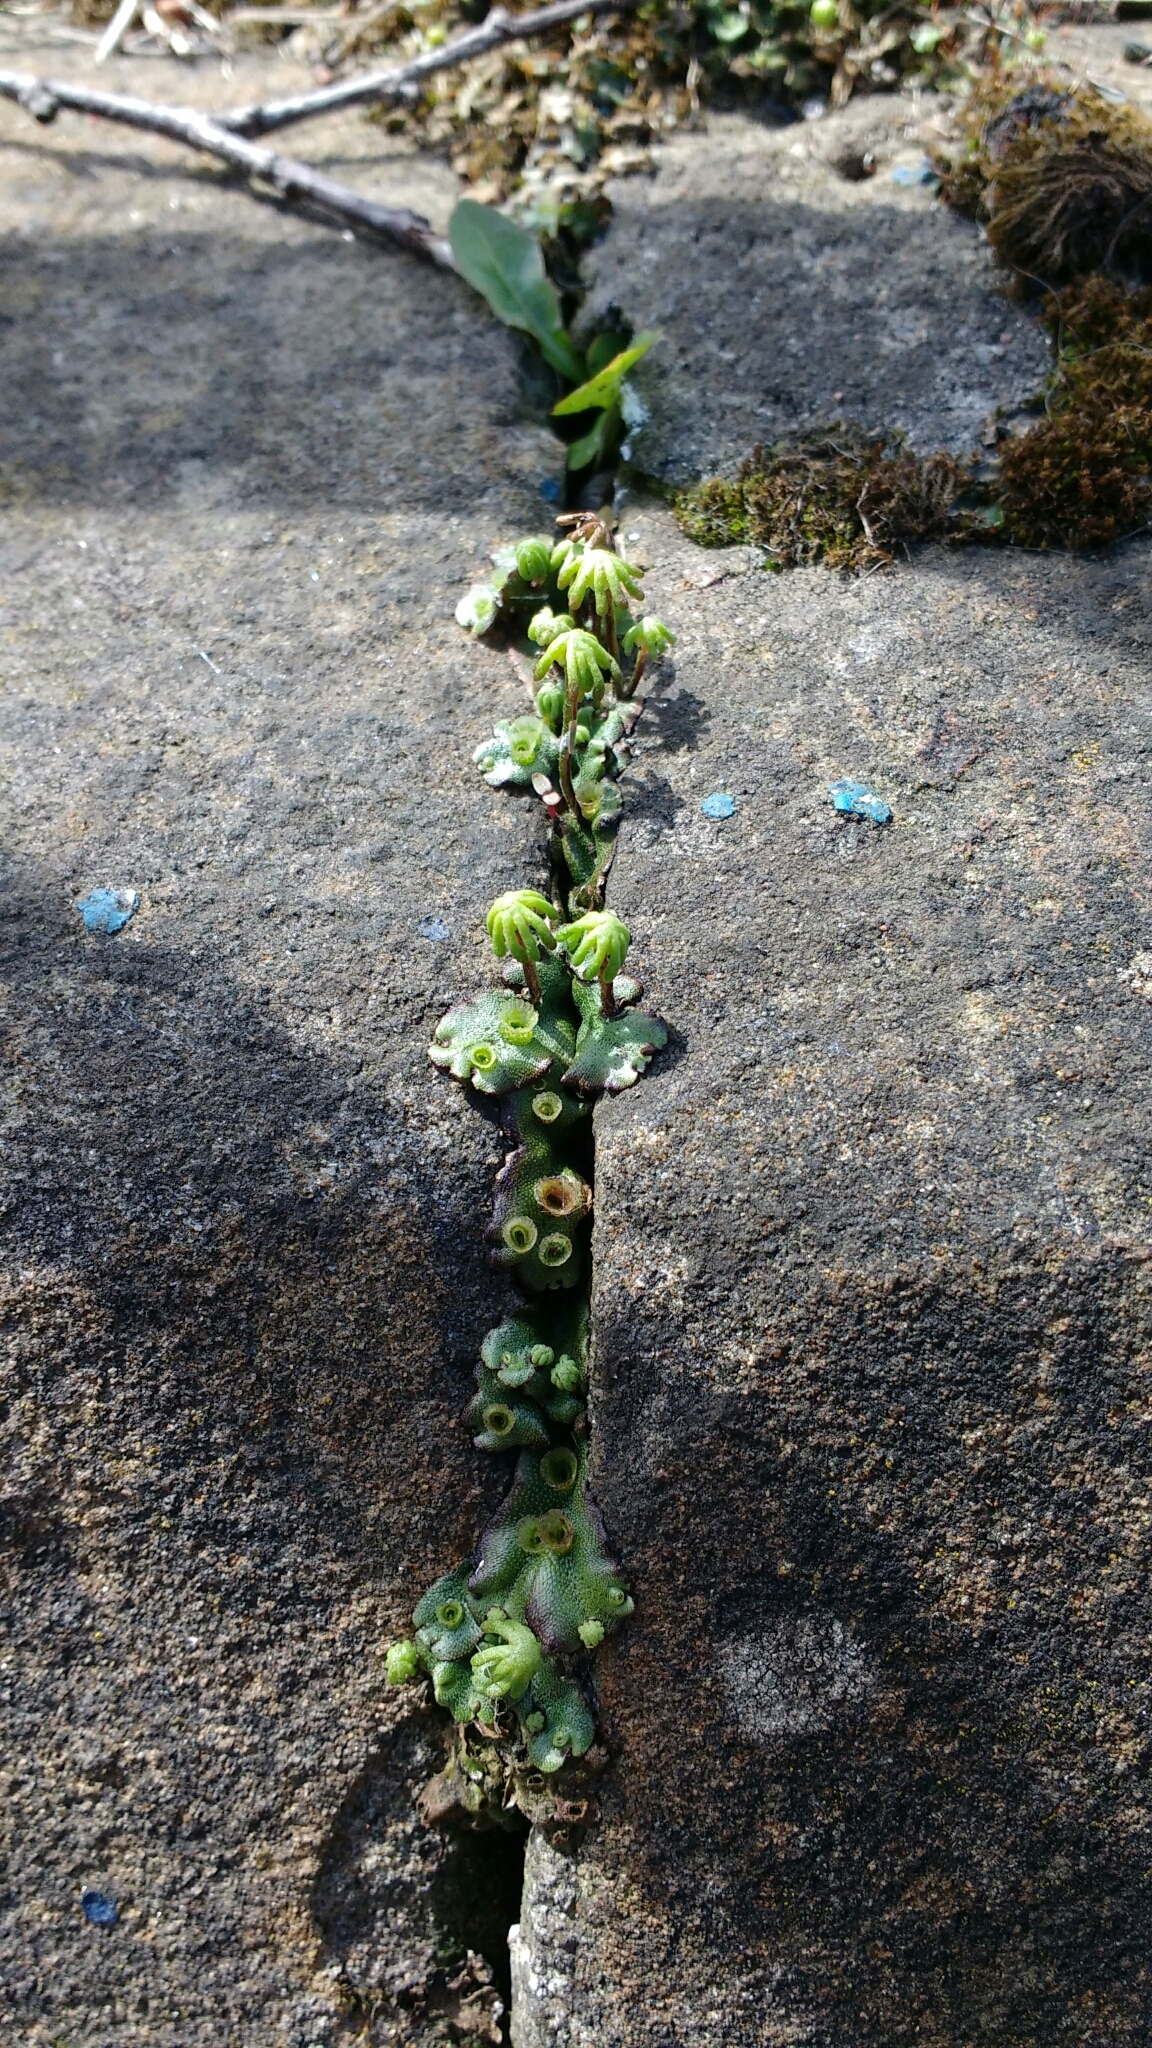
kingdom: Plantae
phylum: Marchantiophyta
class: Marchantiopsida
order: Marchantiales
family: Marchantiaceae
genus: Marchantia
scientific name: Marchantia polymorpha
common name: Common liverwort
